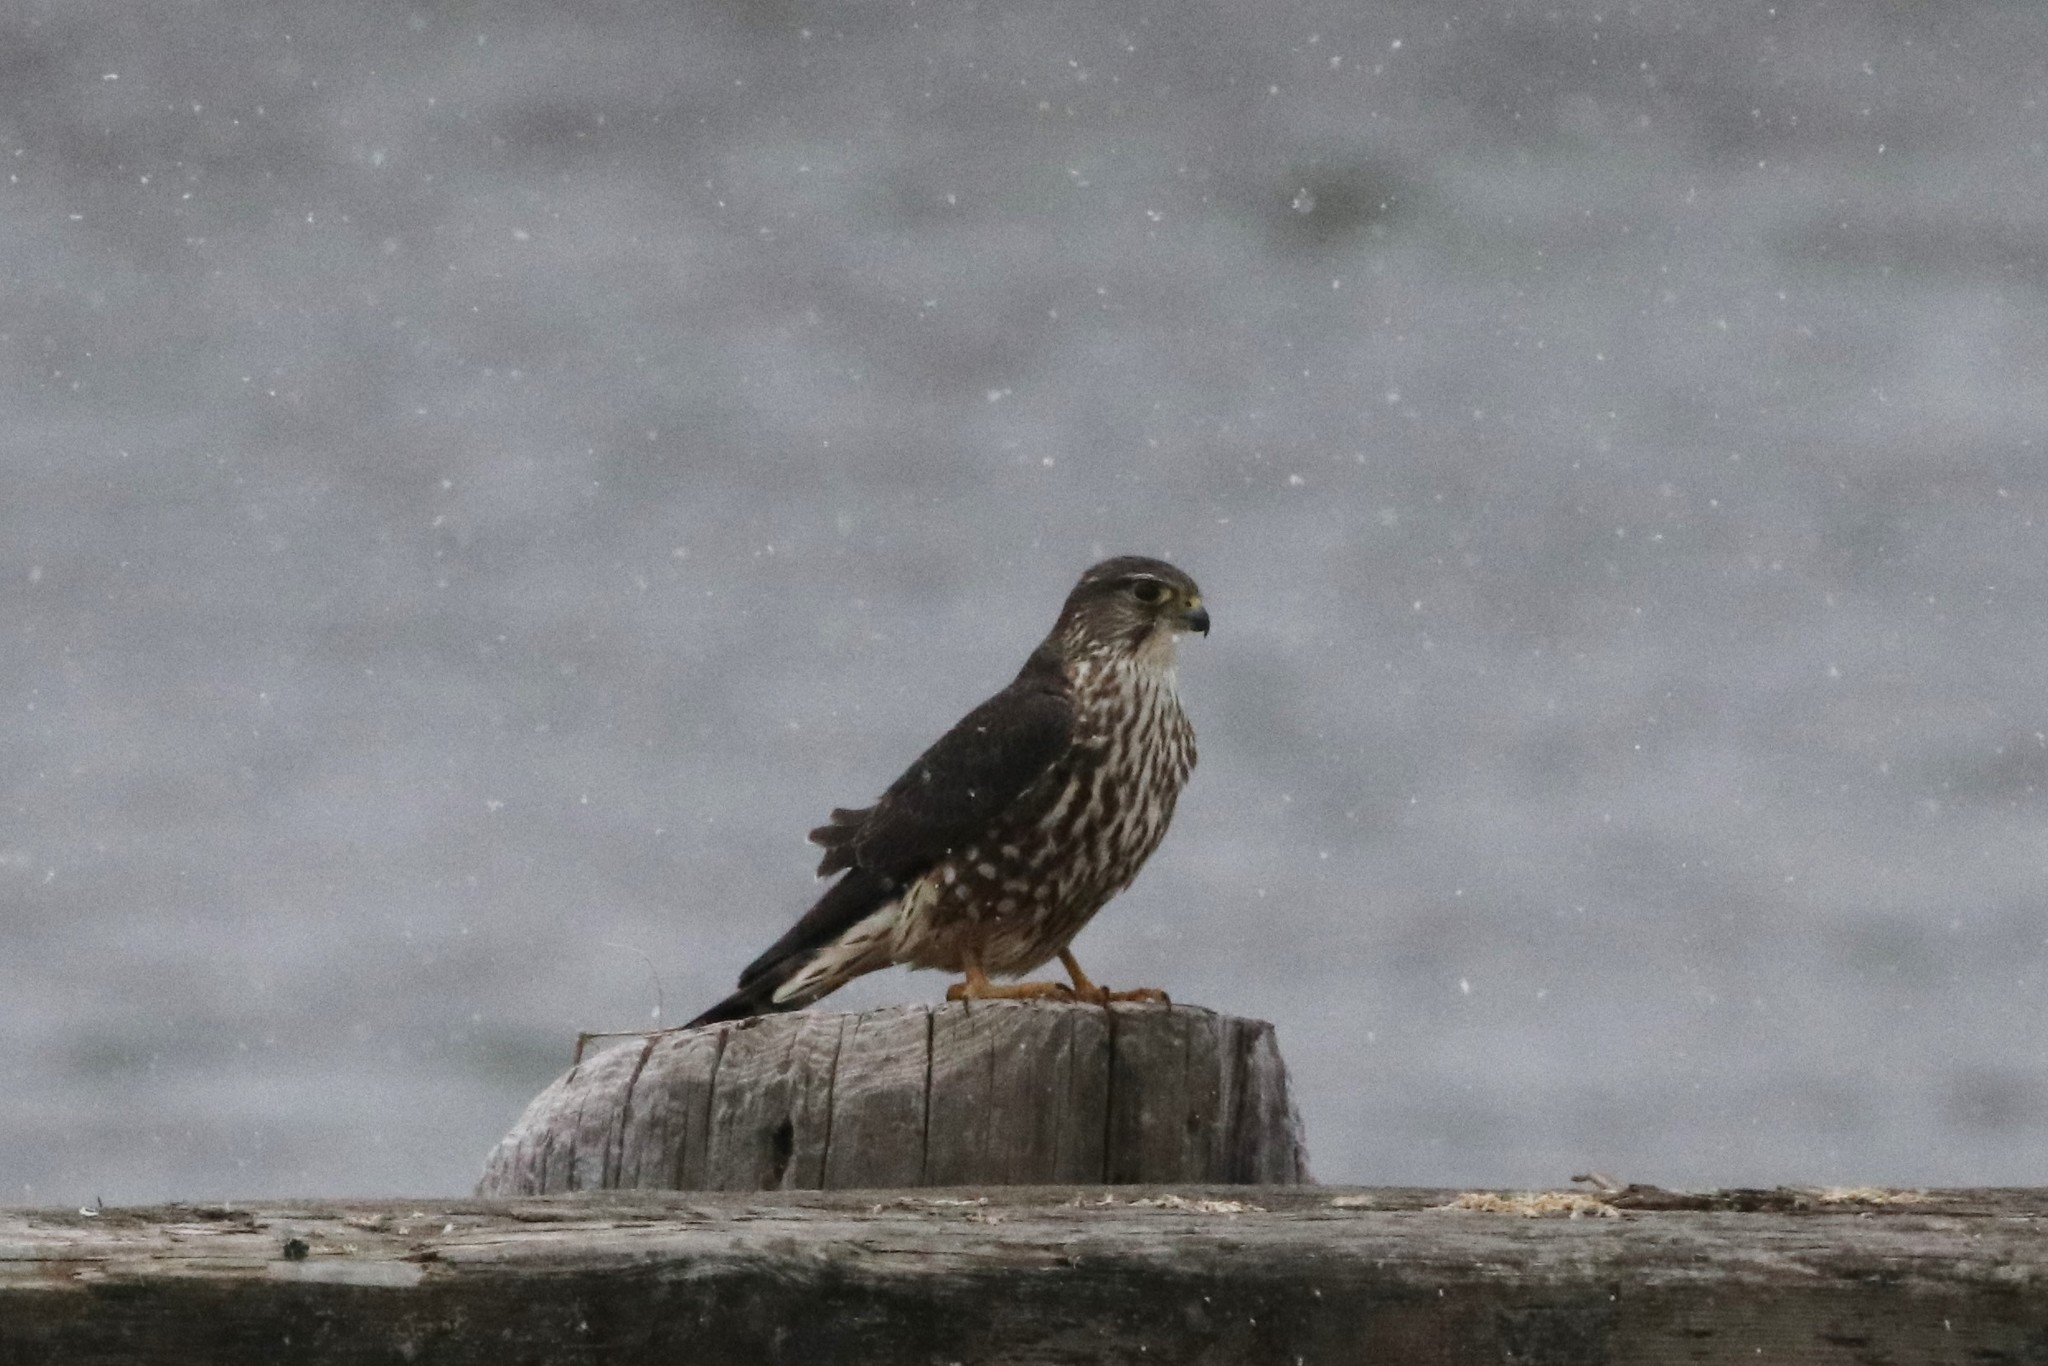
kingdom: Animalia
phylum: Chordata
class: Aves
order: Falconiformes
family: Falconidae
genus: Falco
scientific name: Falco columbarius
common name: Merlin
